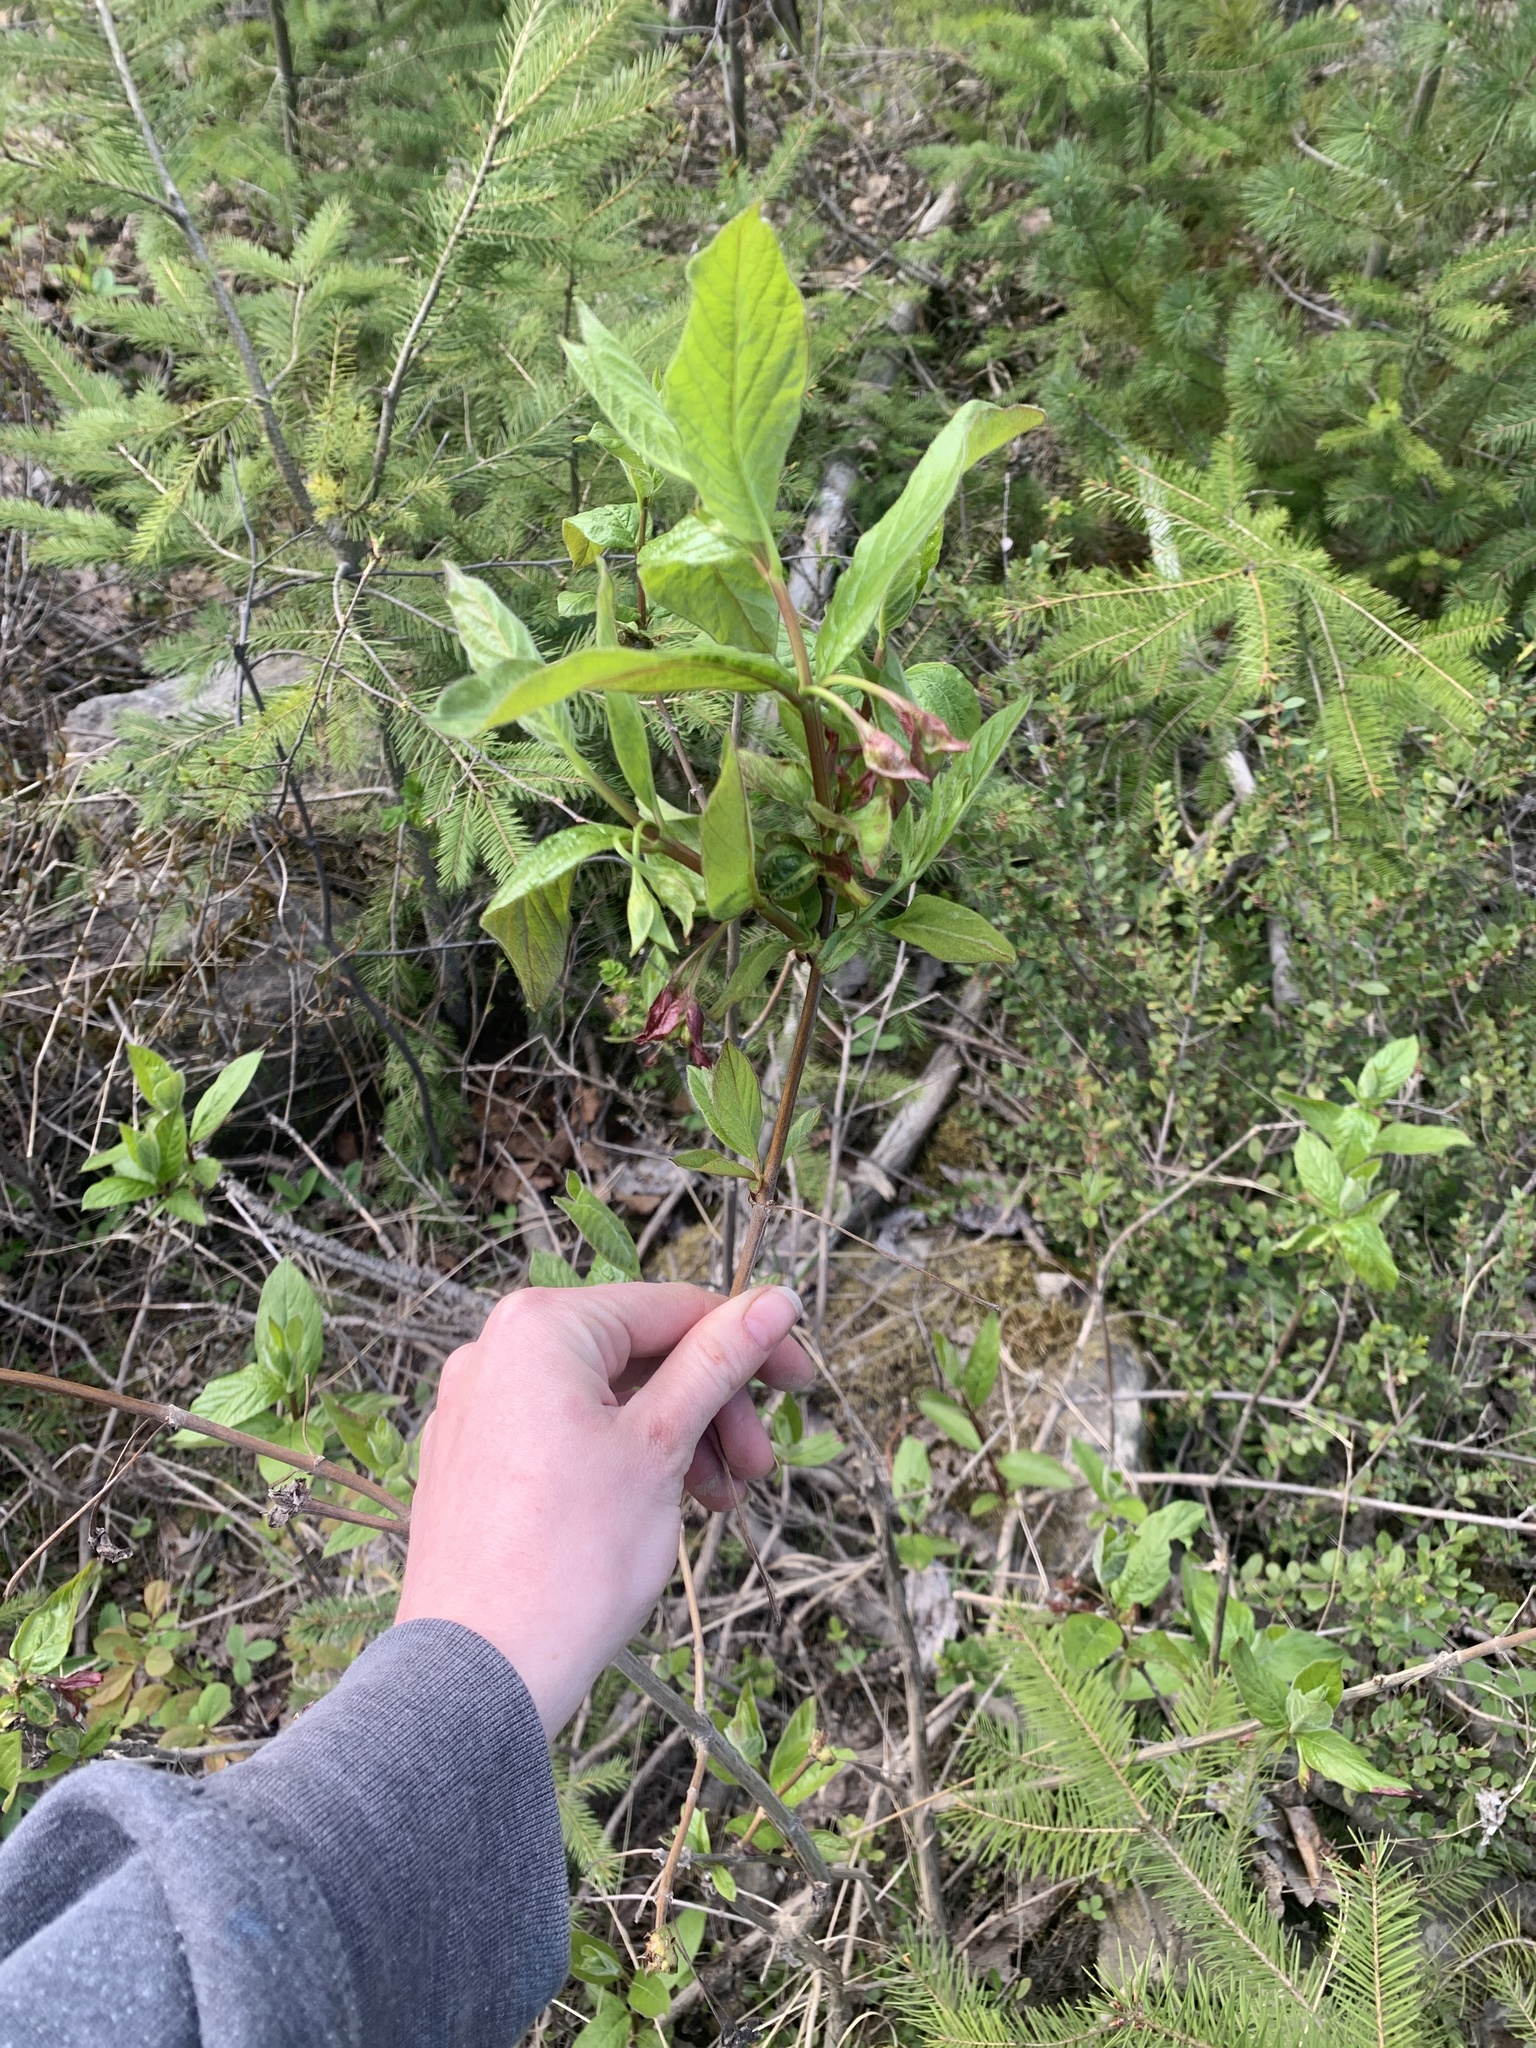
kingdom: Plantae
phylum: Tracheophyta
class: Magnoliopsida
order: Dipsacales
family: Caprifoliaceae
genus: Lonicera
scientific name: Lonicera involucrata
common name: Californian honeysuckle
